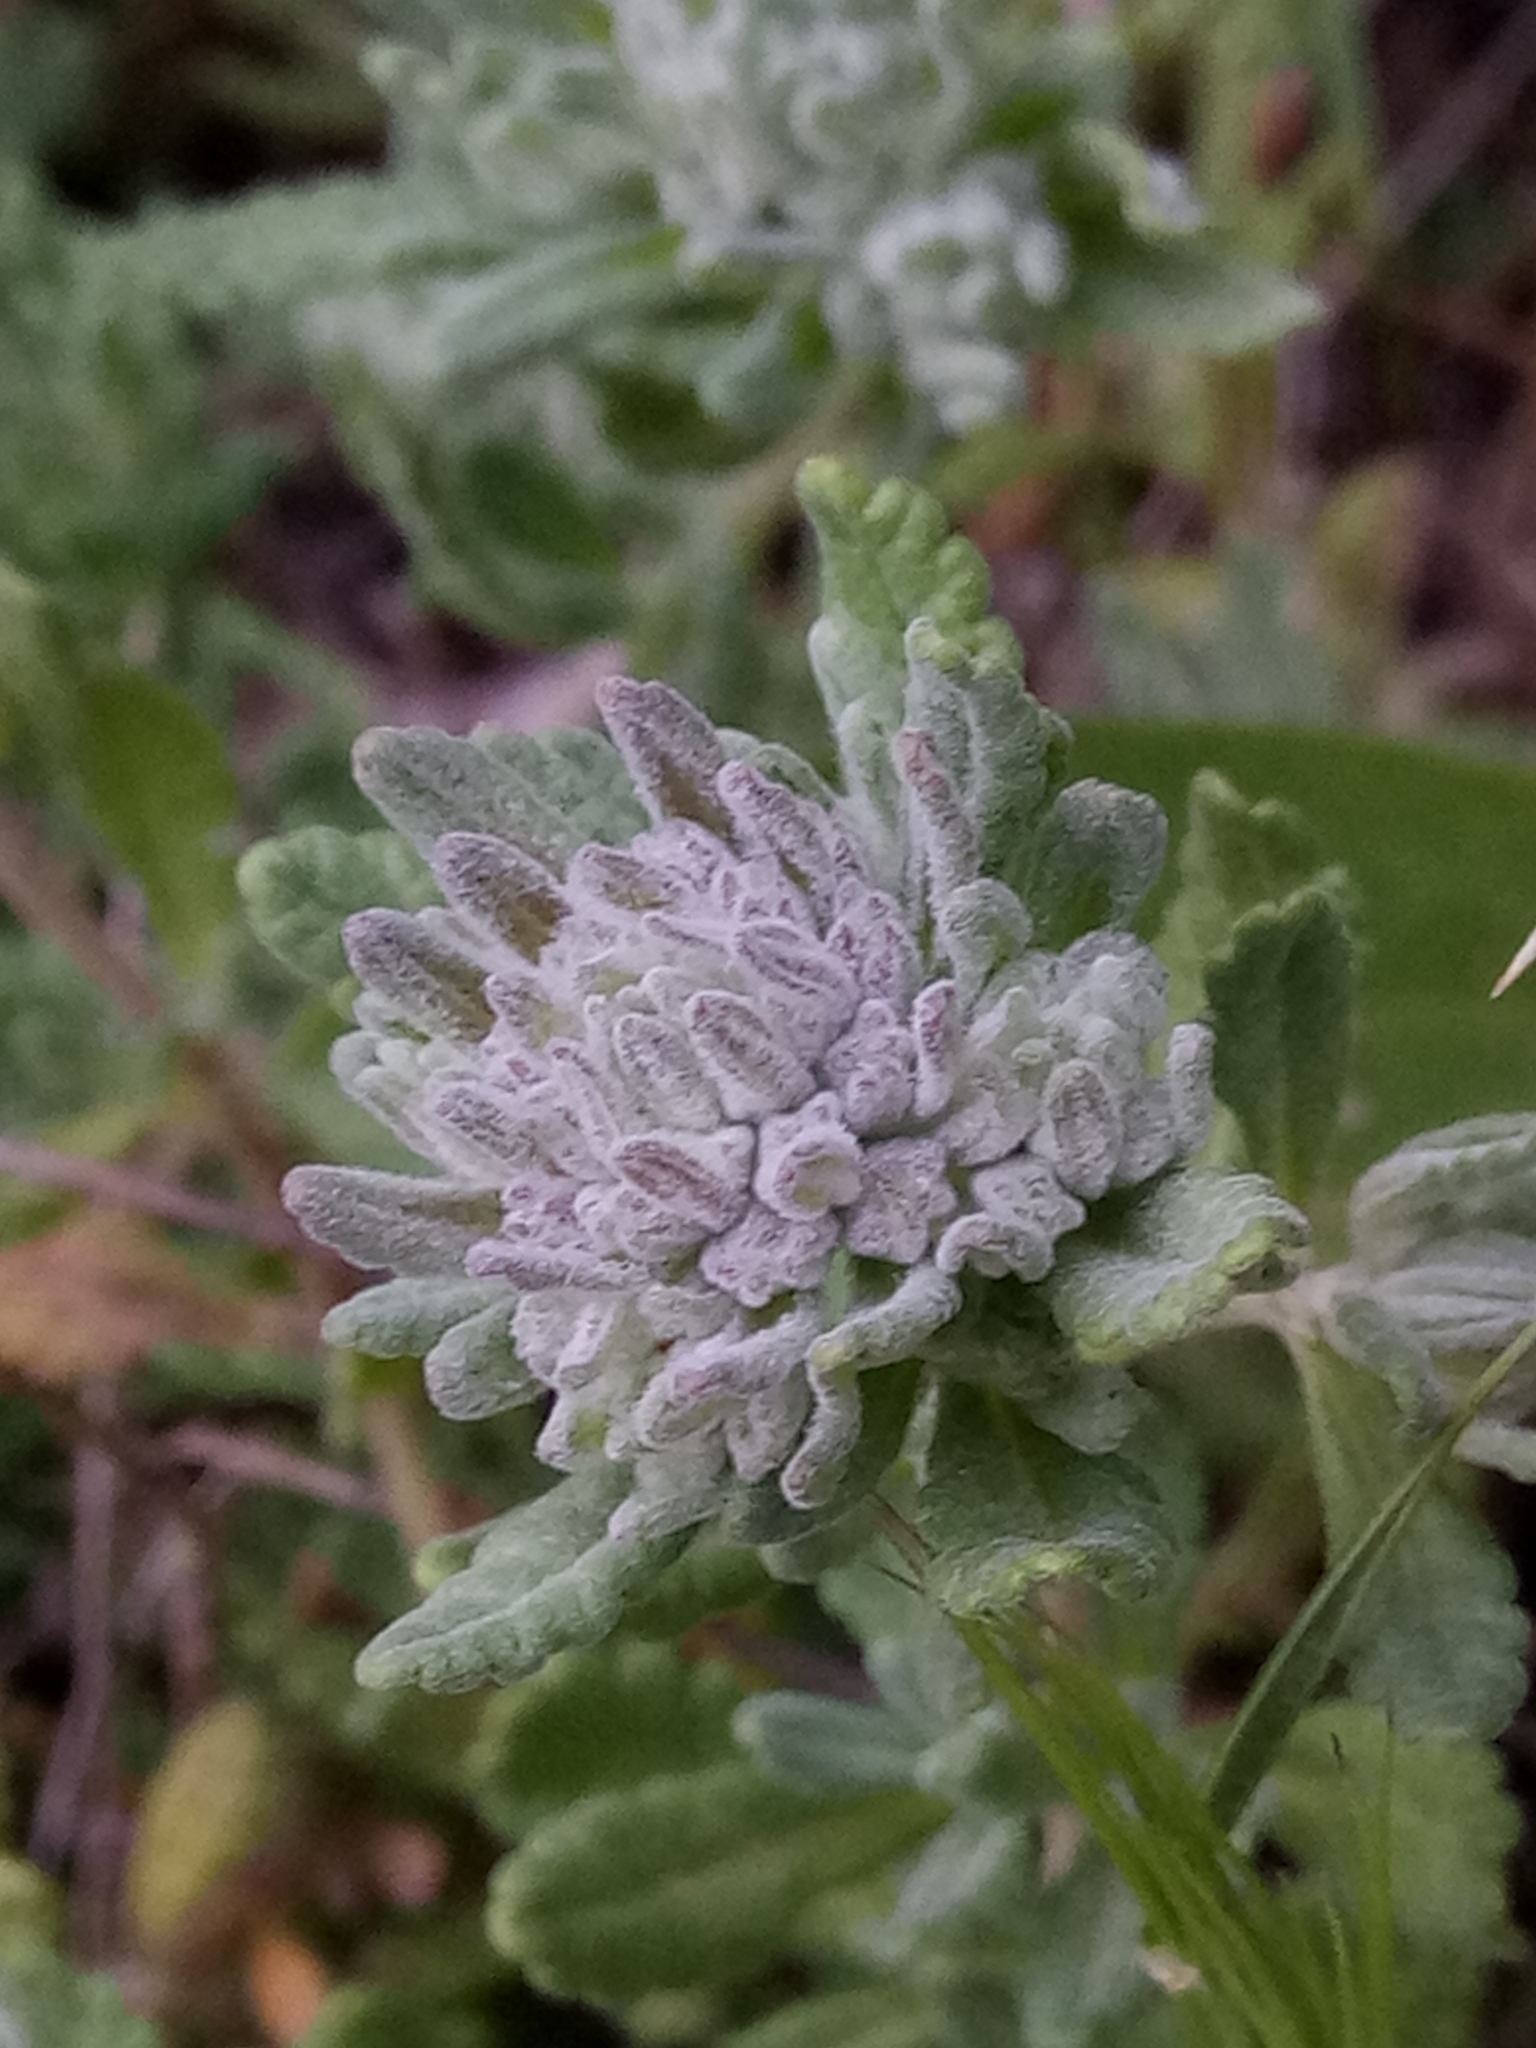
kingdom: Plantae
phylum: Tracheophyta
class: Magnoliopsida
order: Lamiales
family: Lamiaceae
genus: Teucrium
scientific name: Teucrium capitatum
